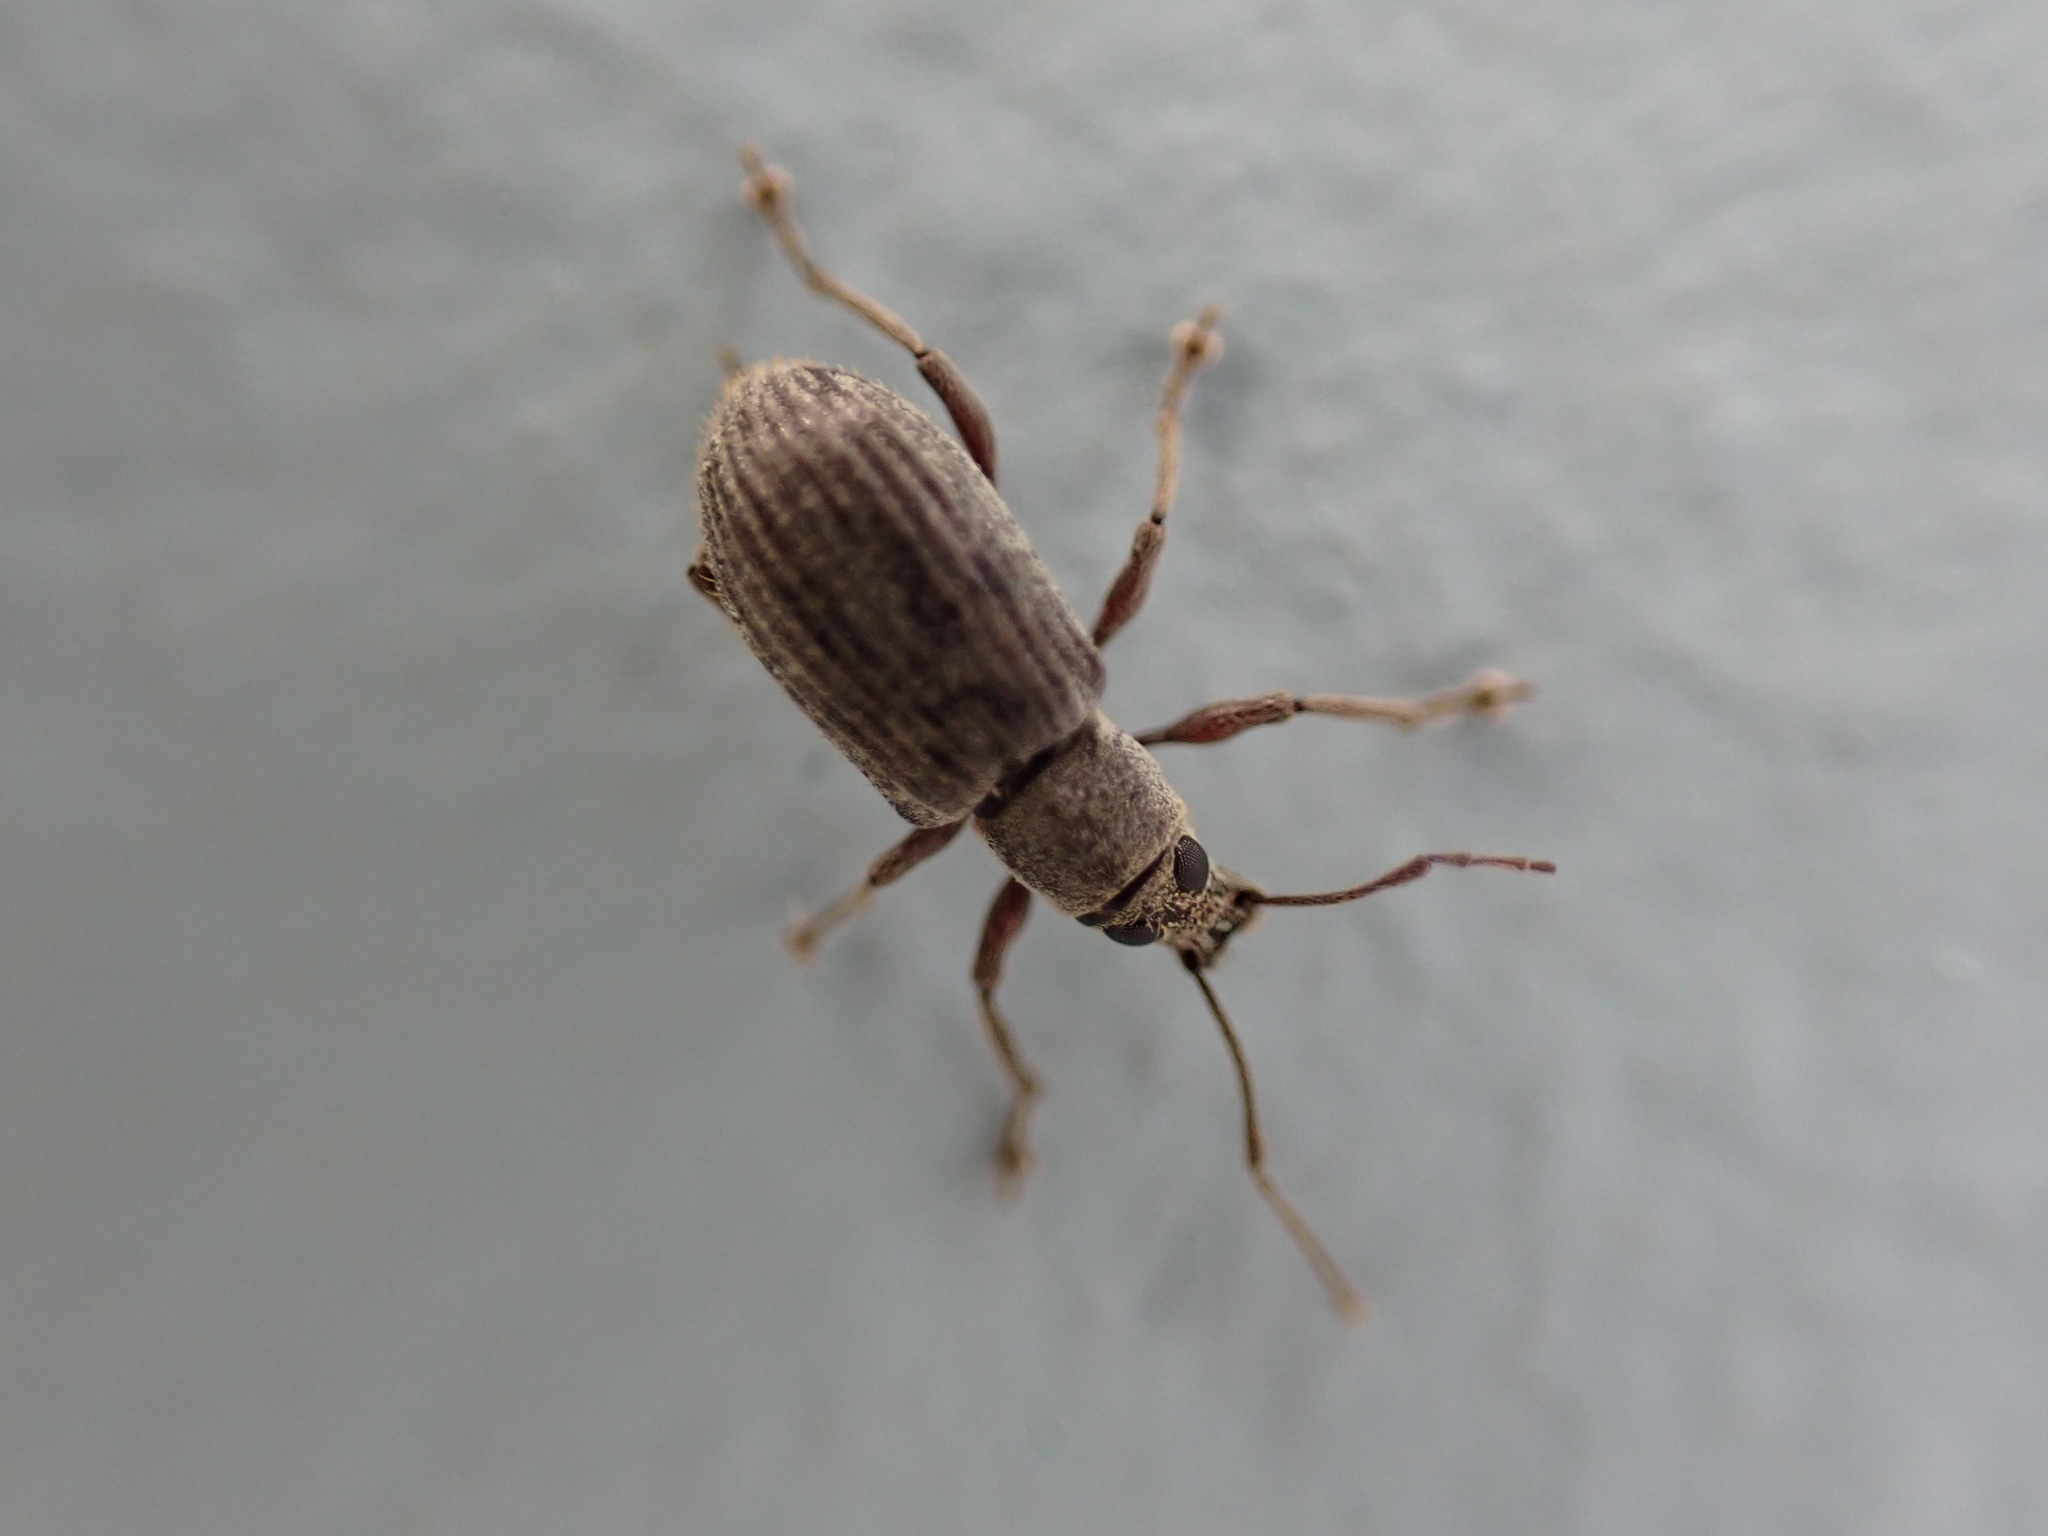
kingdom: Animalia
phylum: Arthropoda
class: Insecta
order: Coleoptera
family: Curculionidae
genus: Cyrtepistomus
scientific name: Cyrtepistomus castaneus
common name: Weevil
